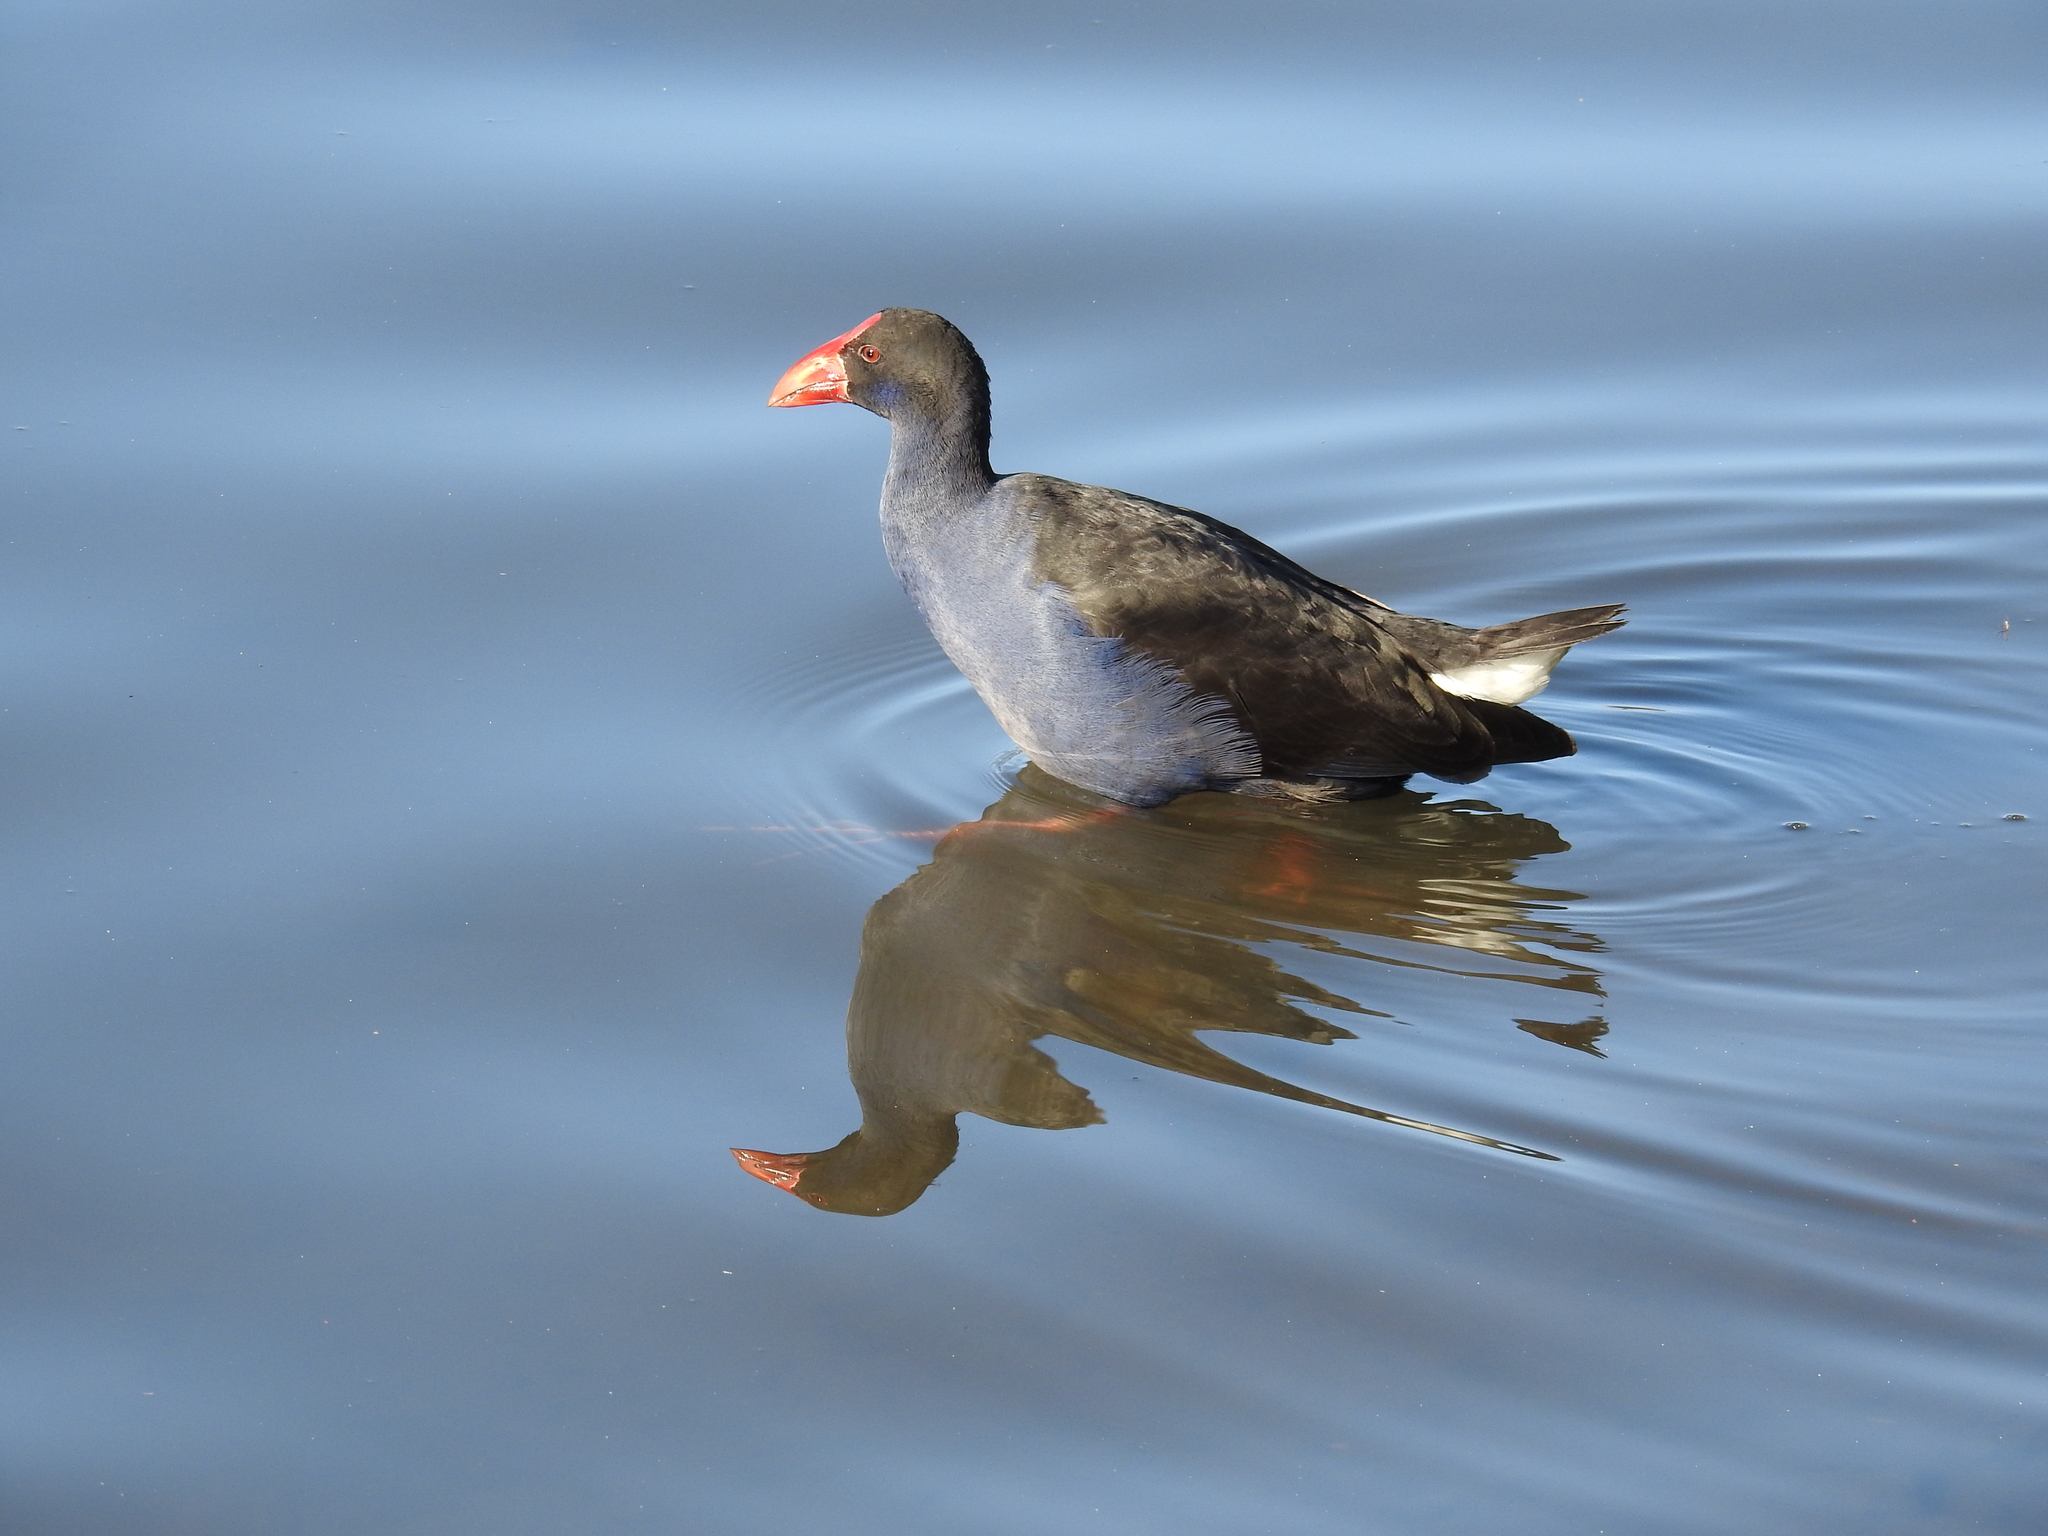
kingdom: Animalia
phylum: Chordata
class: Aves
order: Gruiformes
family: Rallidae
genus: Porphyrio
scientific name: Porphyrio melanotus
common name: Australasian swamphen
